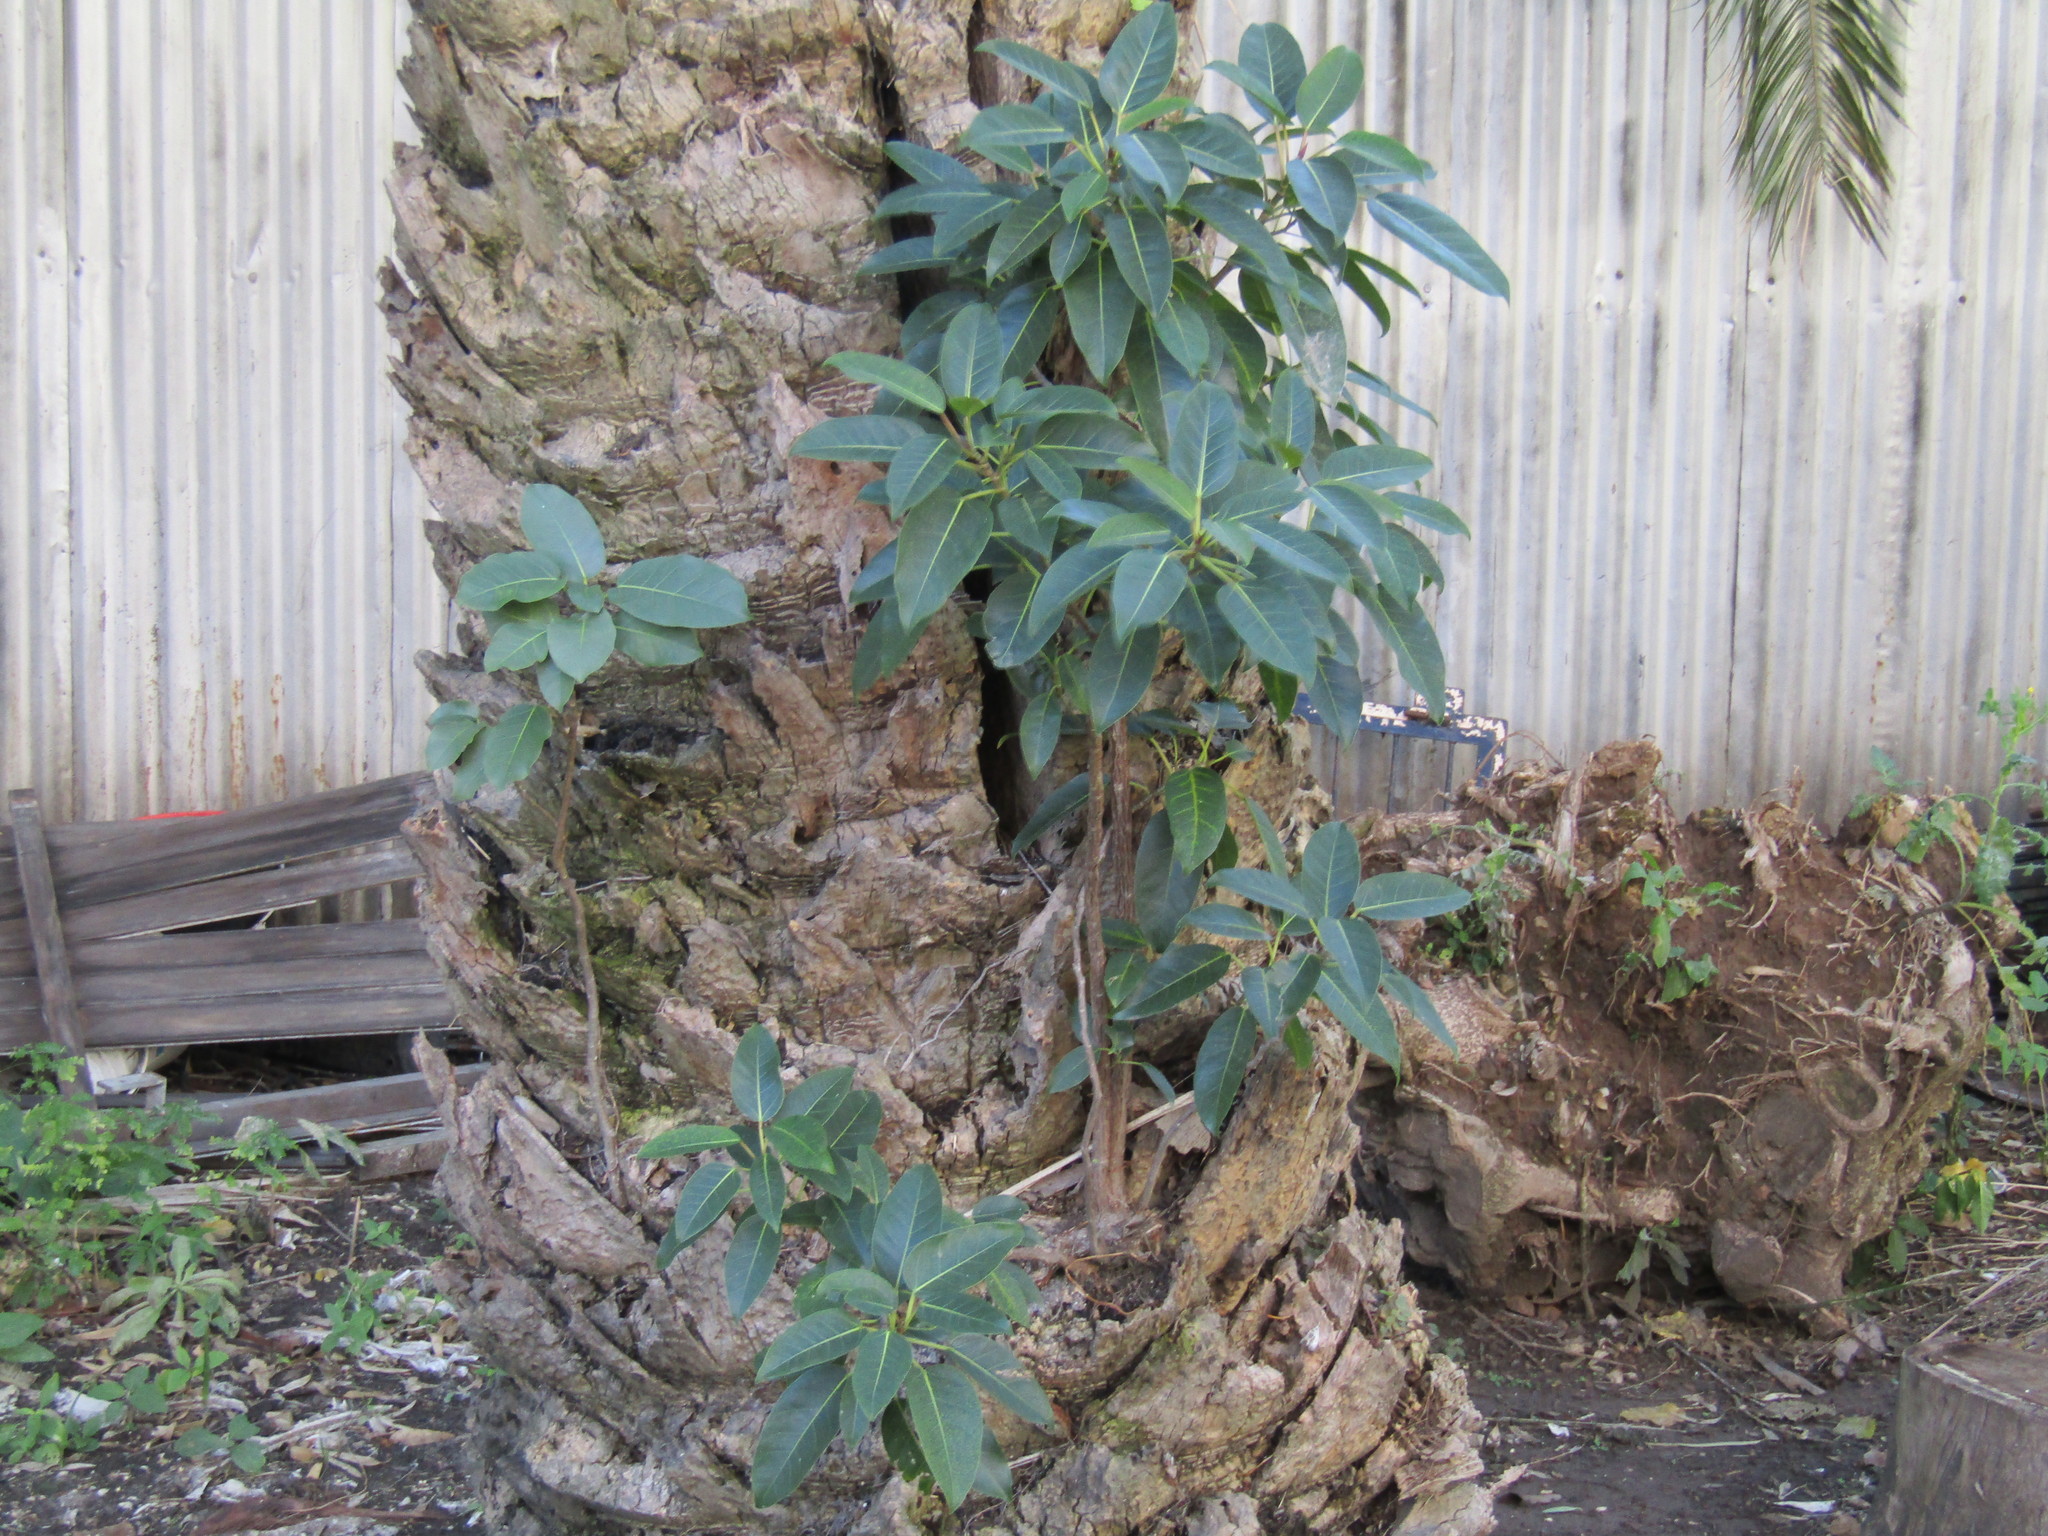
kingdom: Plantae
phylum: Tracheophyta
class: Magnoliopsida
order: Rosales
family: Moraceae
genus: Ficus
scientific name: Ficus aurea
